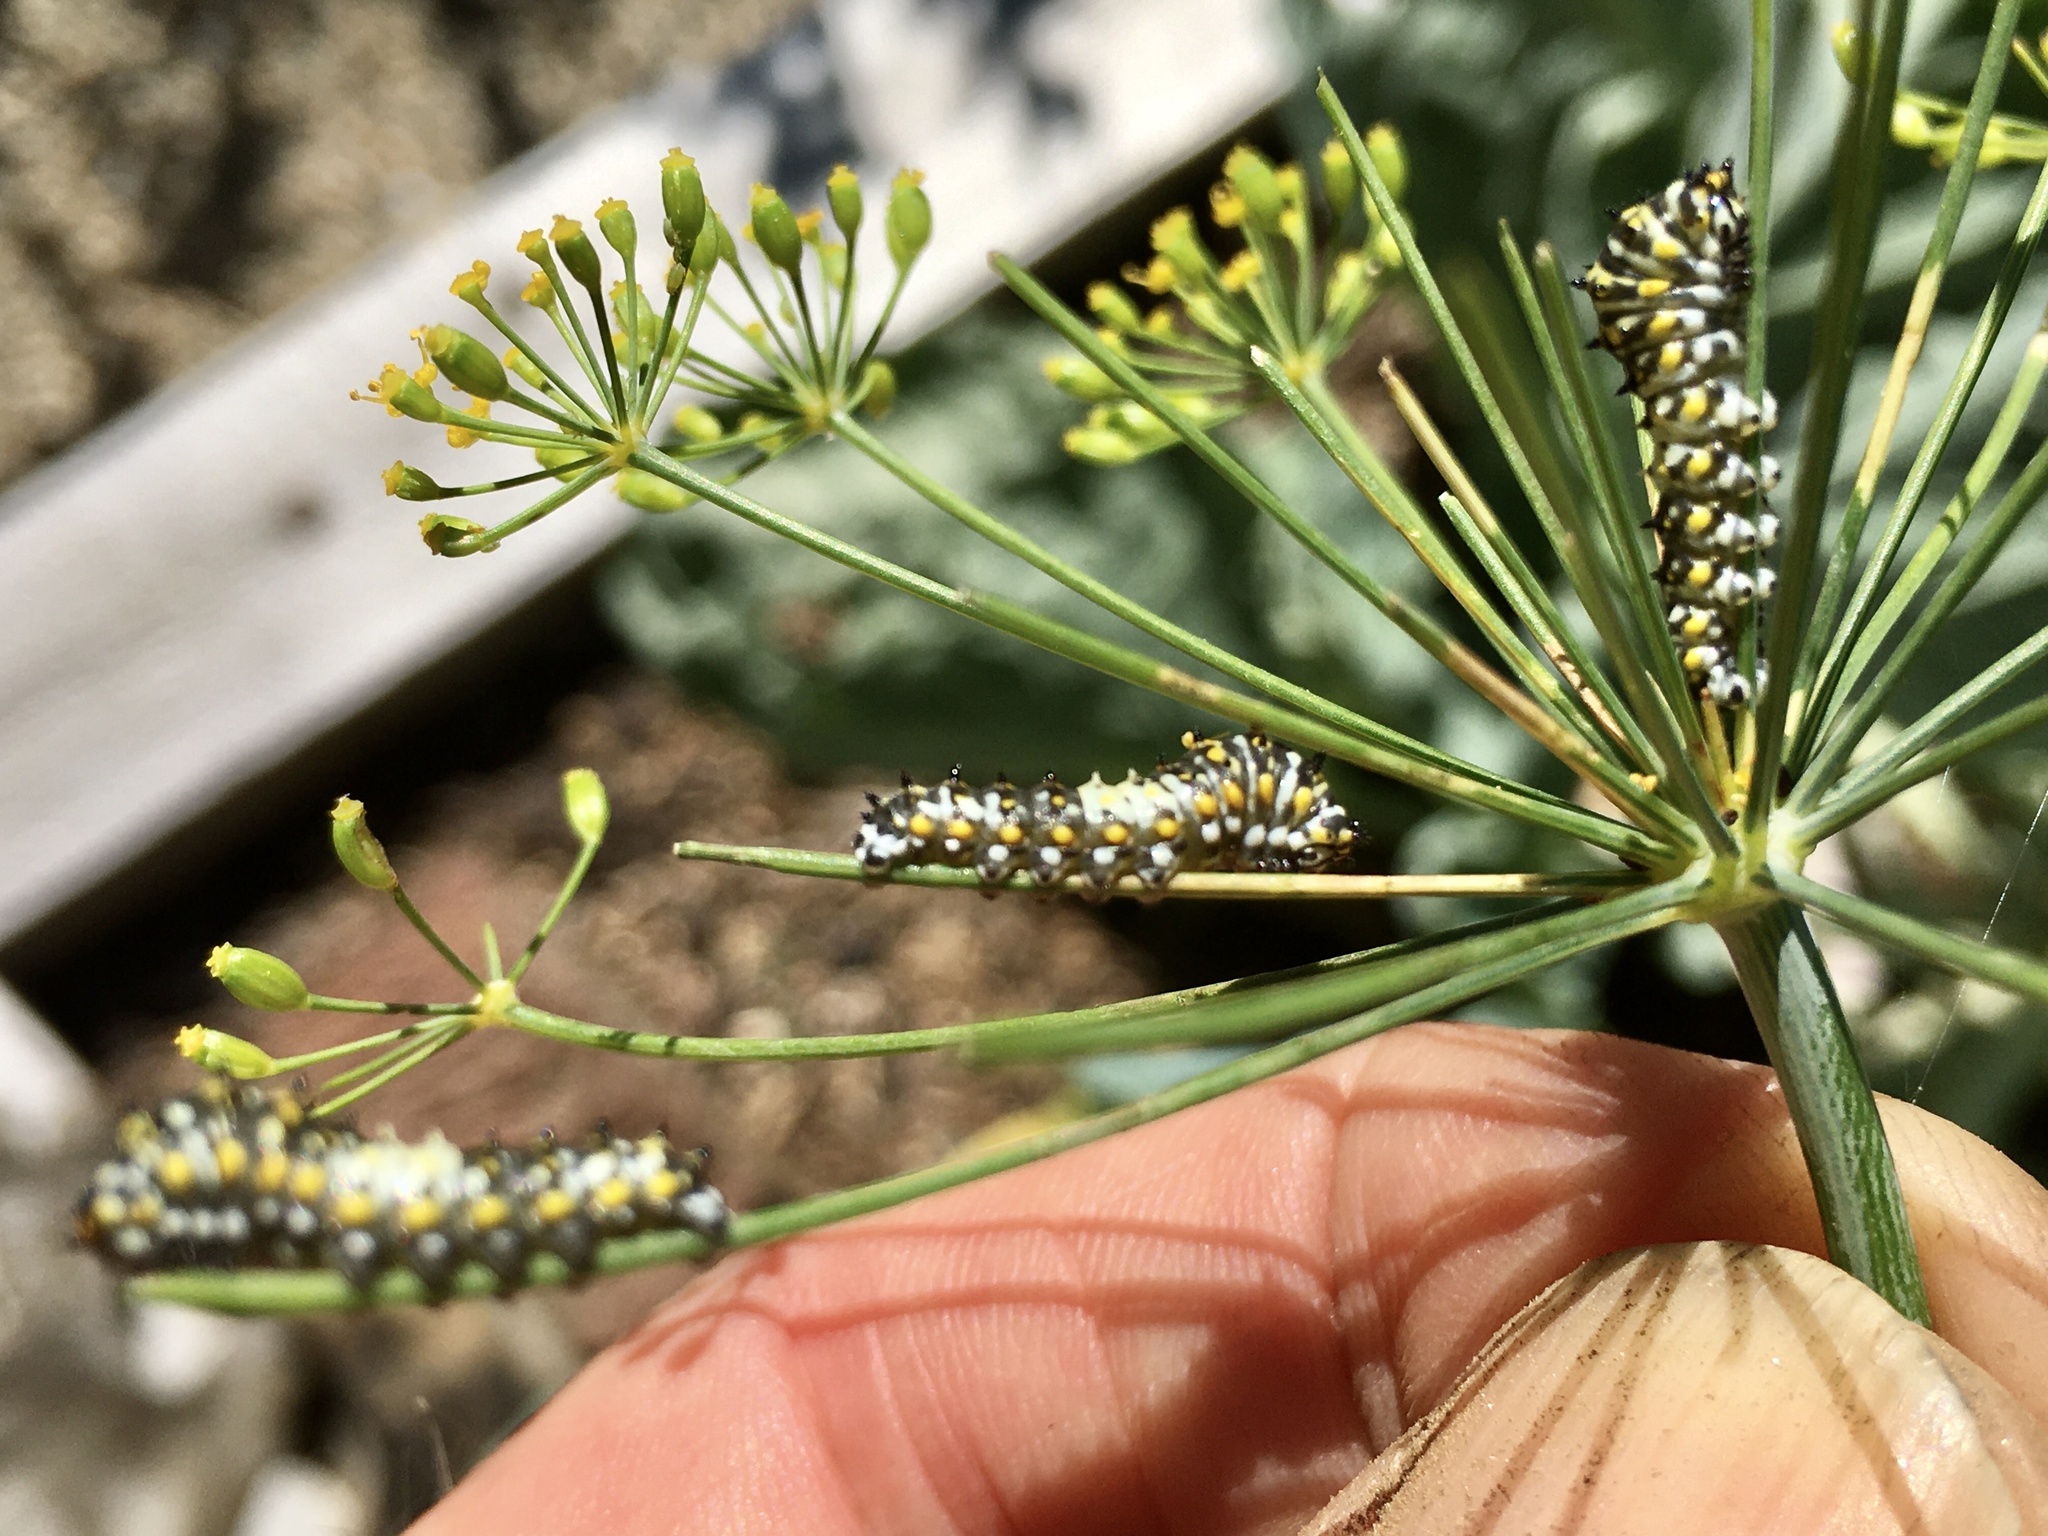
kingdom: Animalia
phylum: Arthropoda
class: Insecta
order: Lepidoptera
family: Papilionidae
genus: Papilio
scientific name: Papilio polyxenes
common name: Black swallowtail
